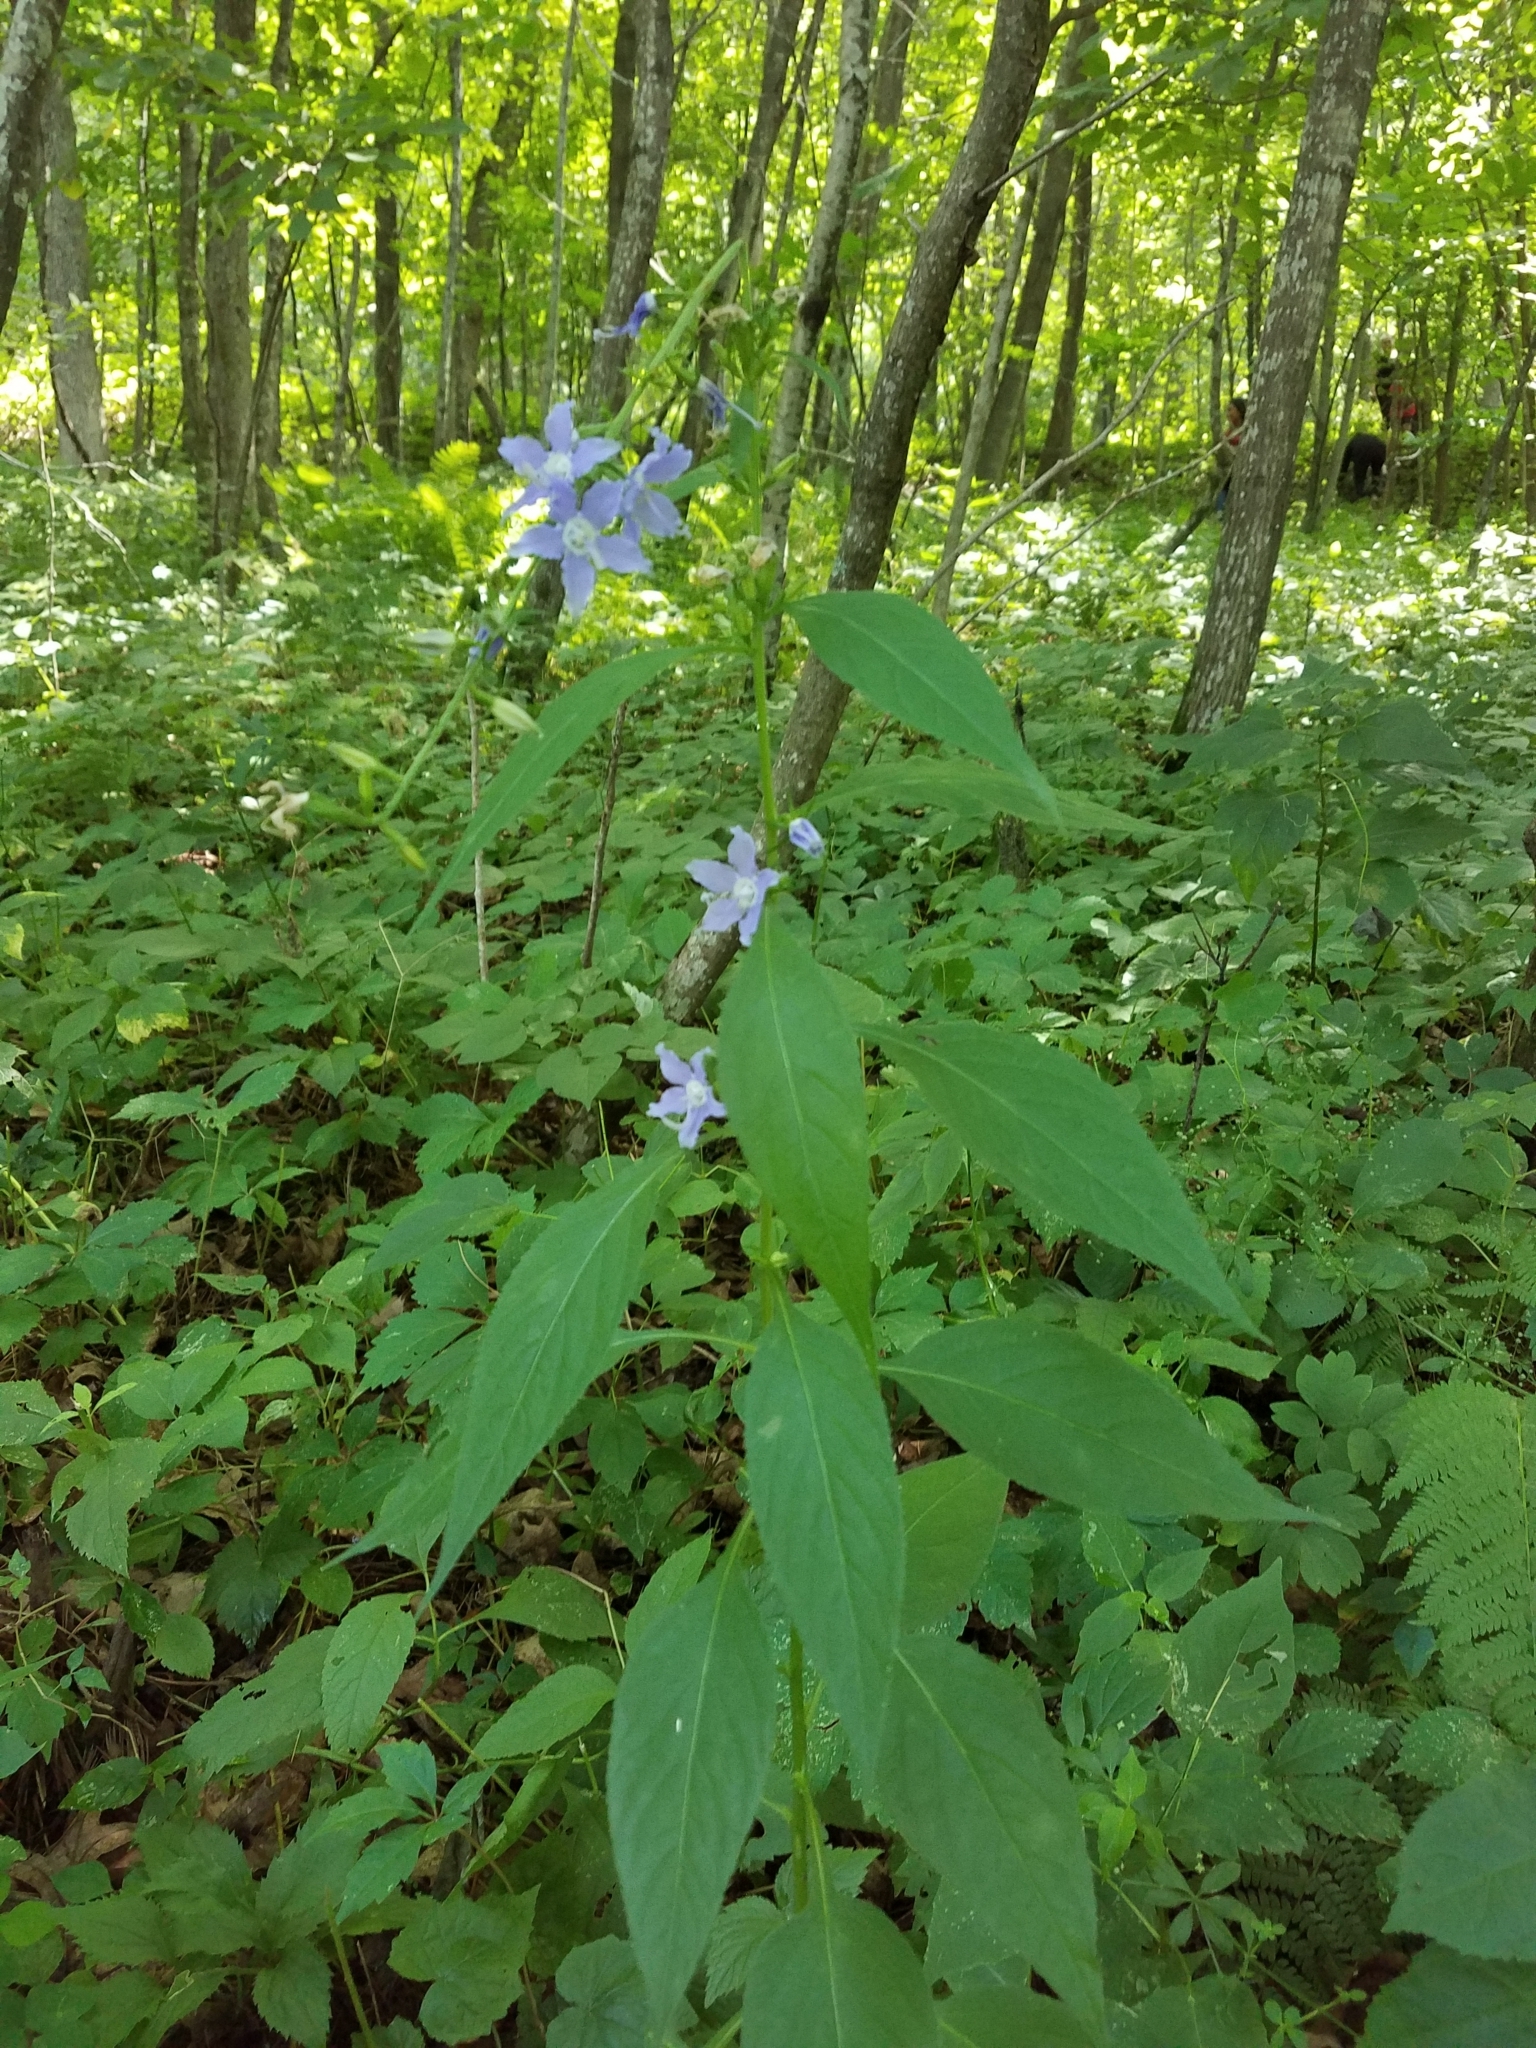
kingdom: Plantae
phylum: Tracheophyta
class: Magnoliopsida
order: Asterales
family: Campanulaceae
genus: Campanulastrum
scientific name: Campanulastrum americanum
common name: American bellflower
